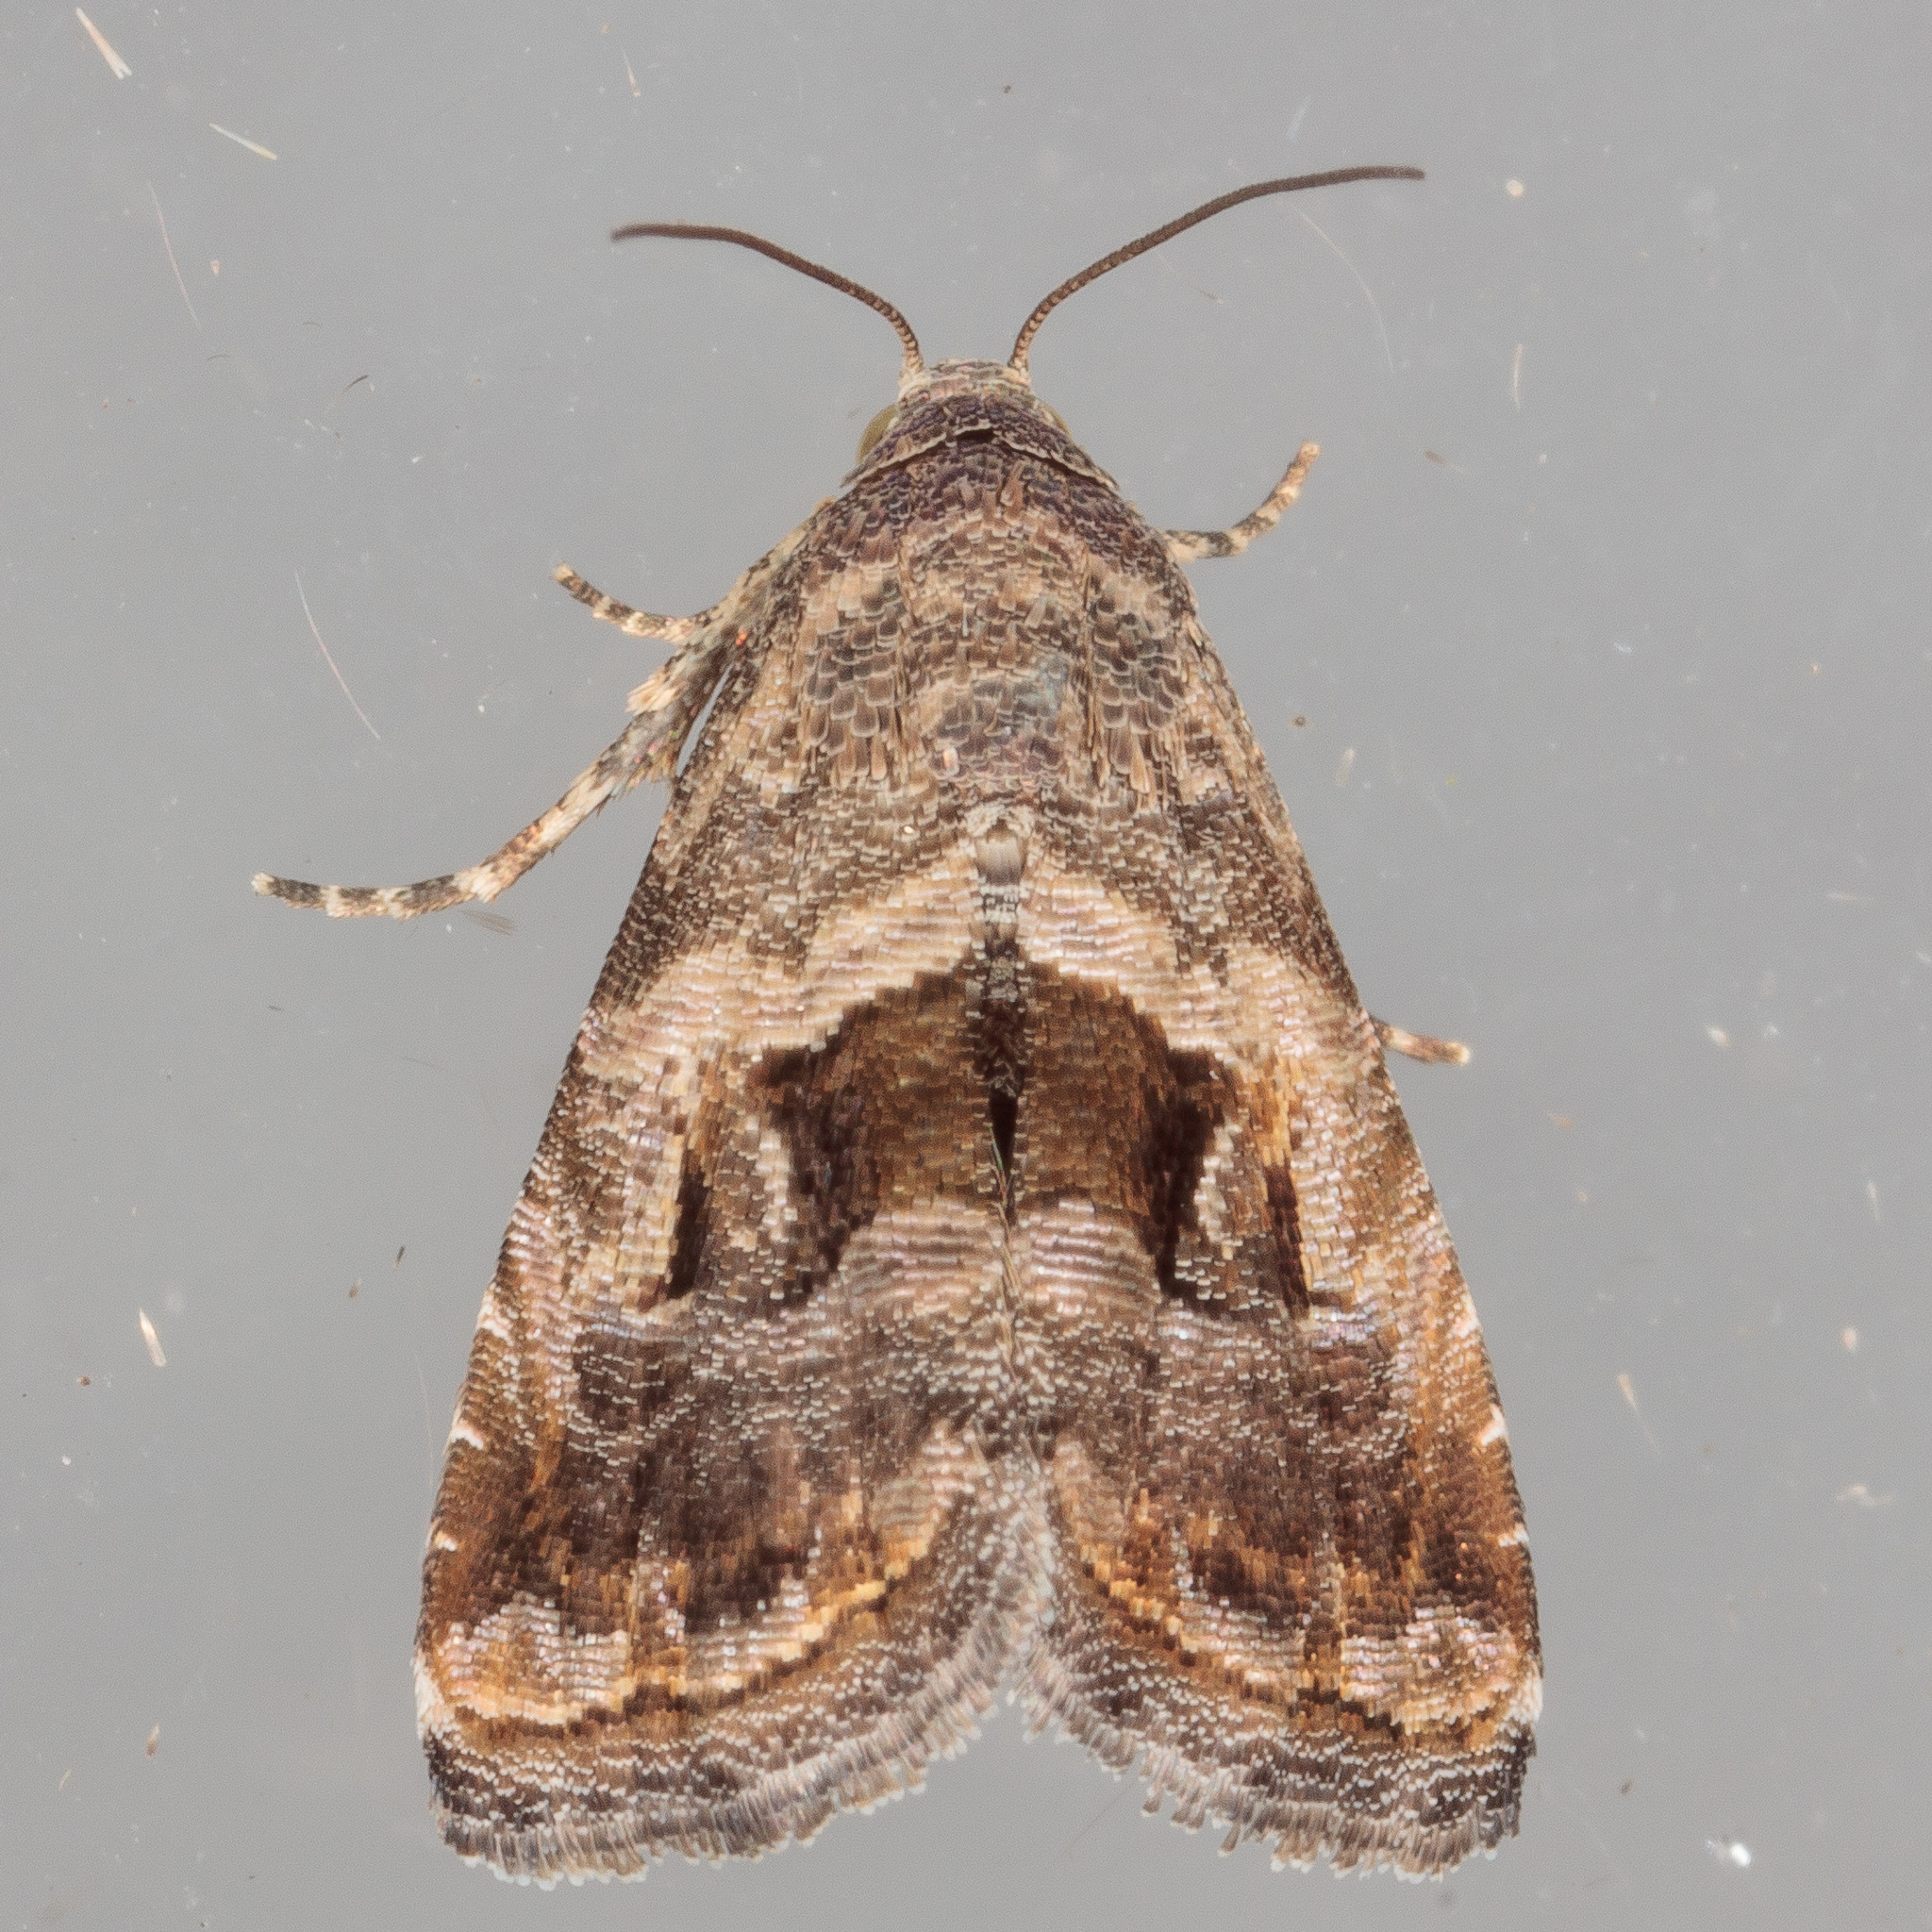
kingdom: Animalia
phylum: Arthropoda
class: Insecta
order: Lepidoptera
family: Noctuidae
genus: Tripudia
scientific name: Tripudia quadrifera
